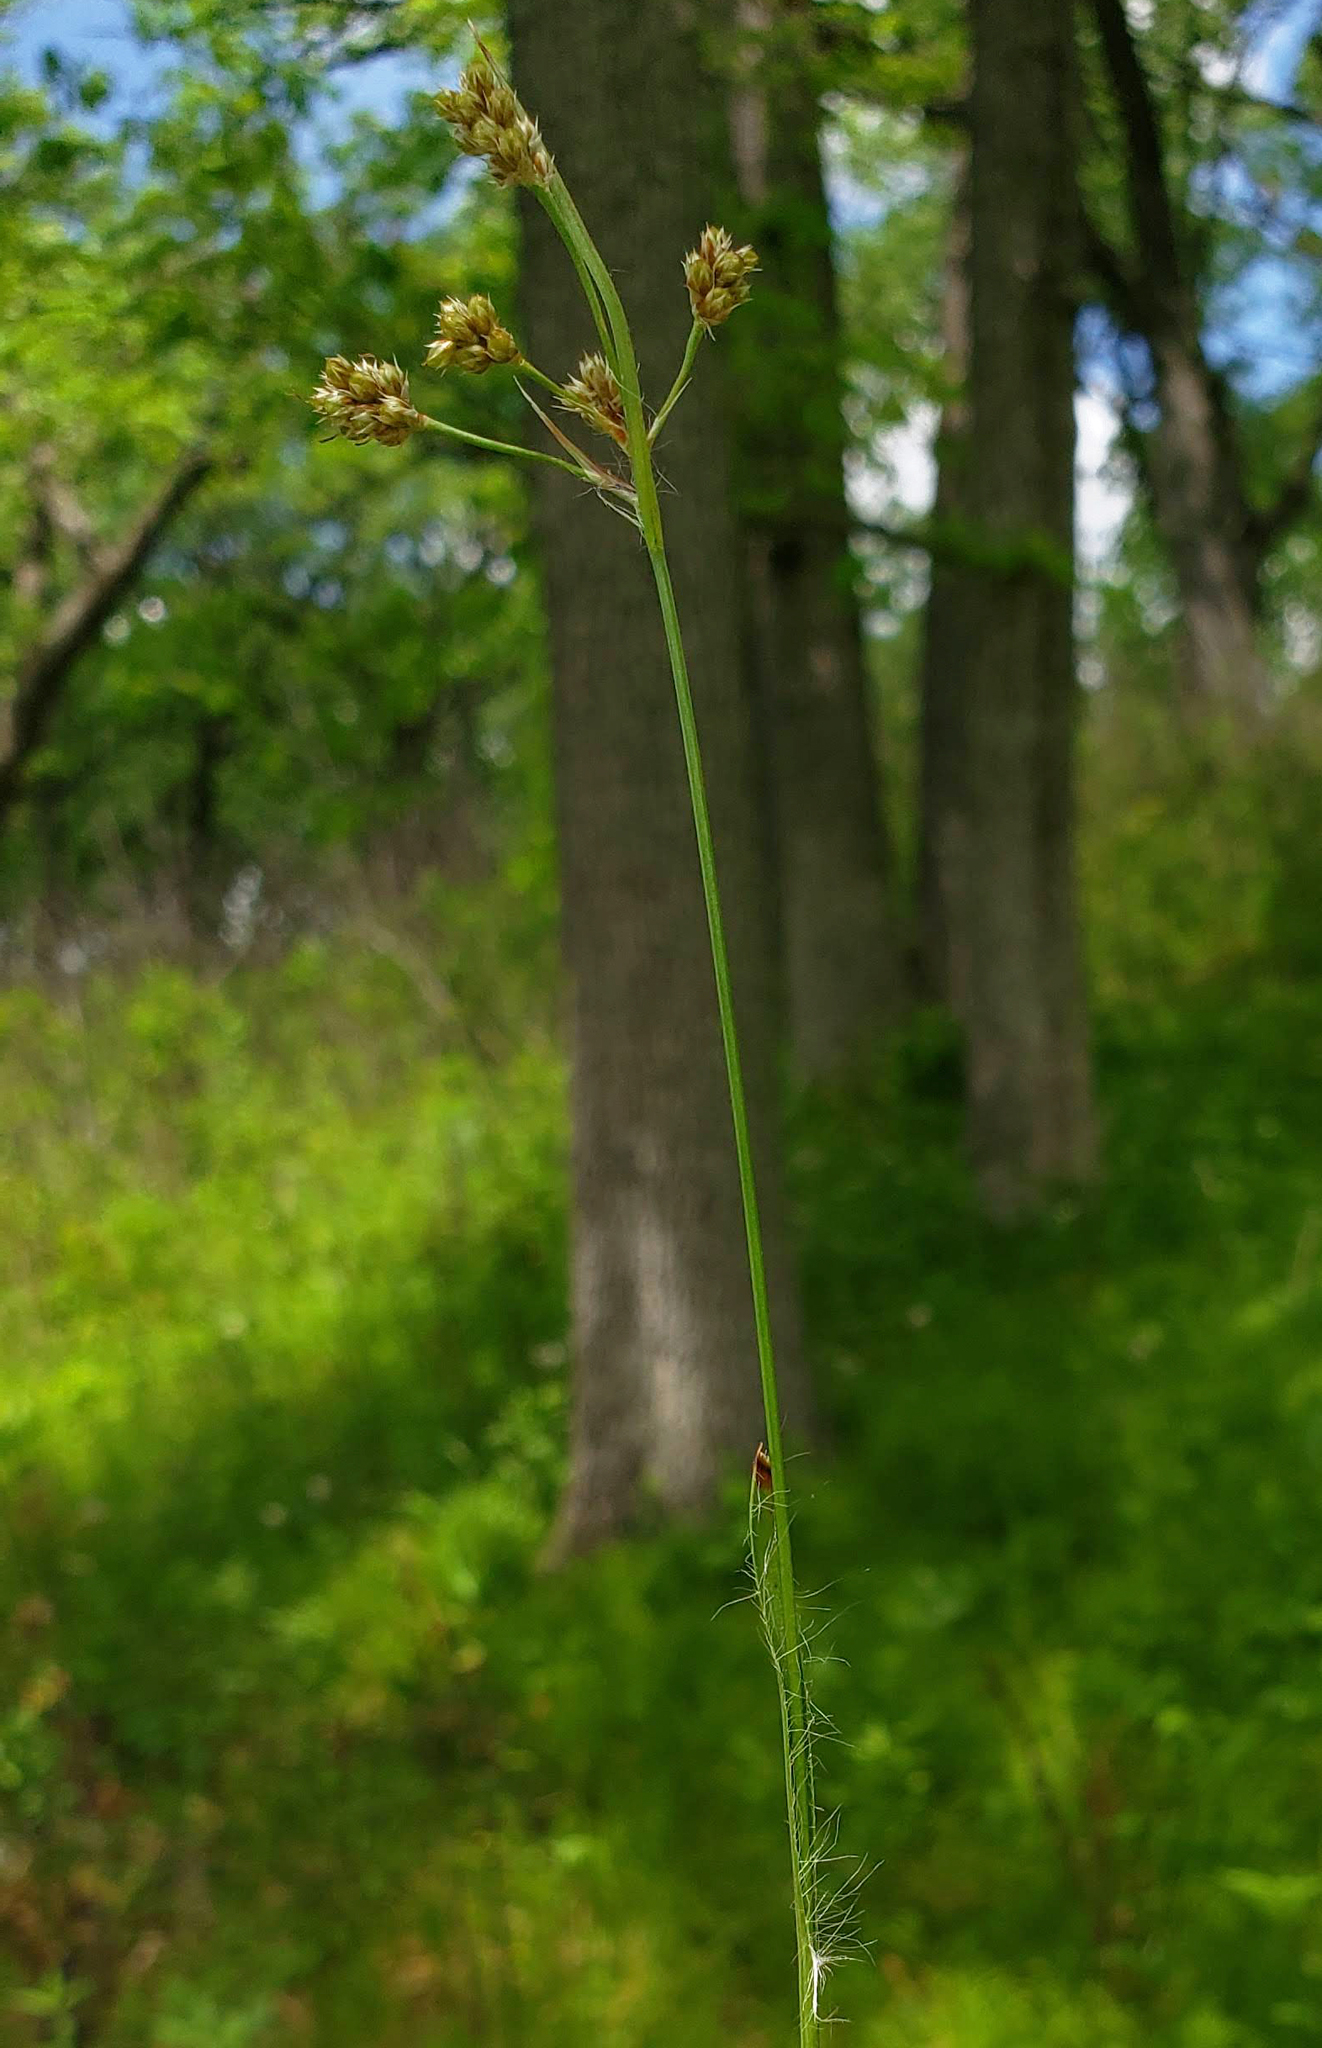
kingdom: Plantae
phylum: Tracheophyta
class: Liliopsida
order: Poales
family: Juncaceae
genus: Luzula
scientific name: Luzula multiflora
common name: Heath wood-rush
